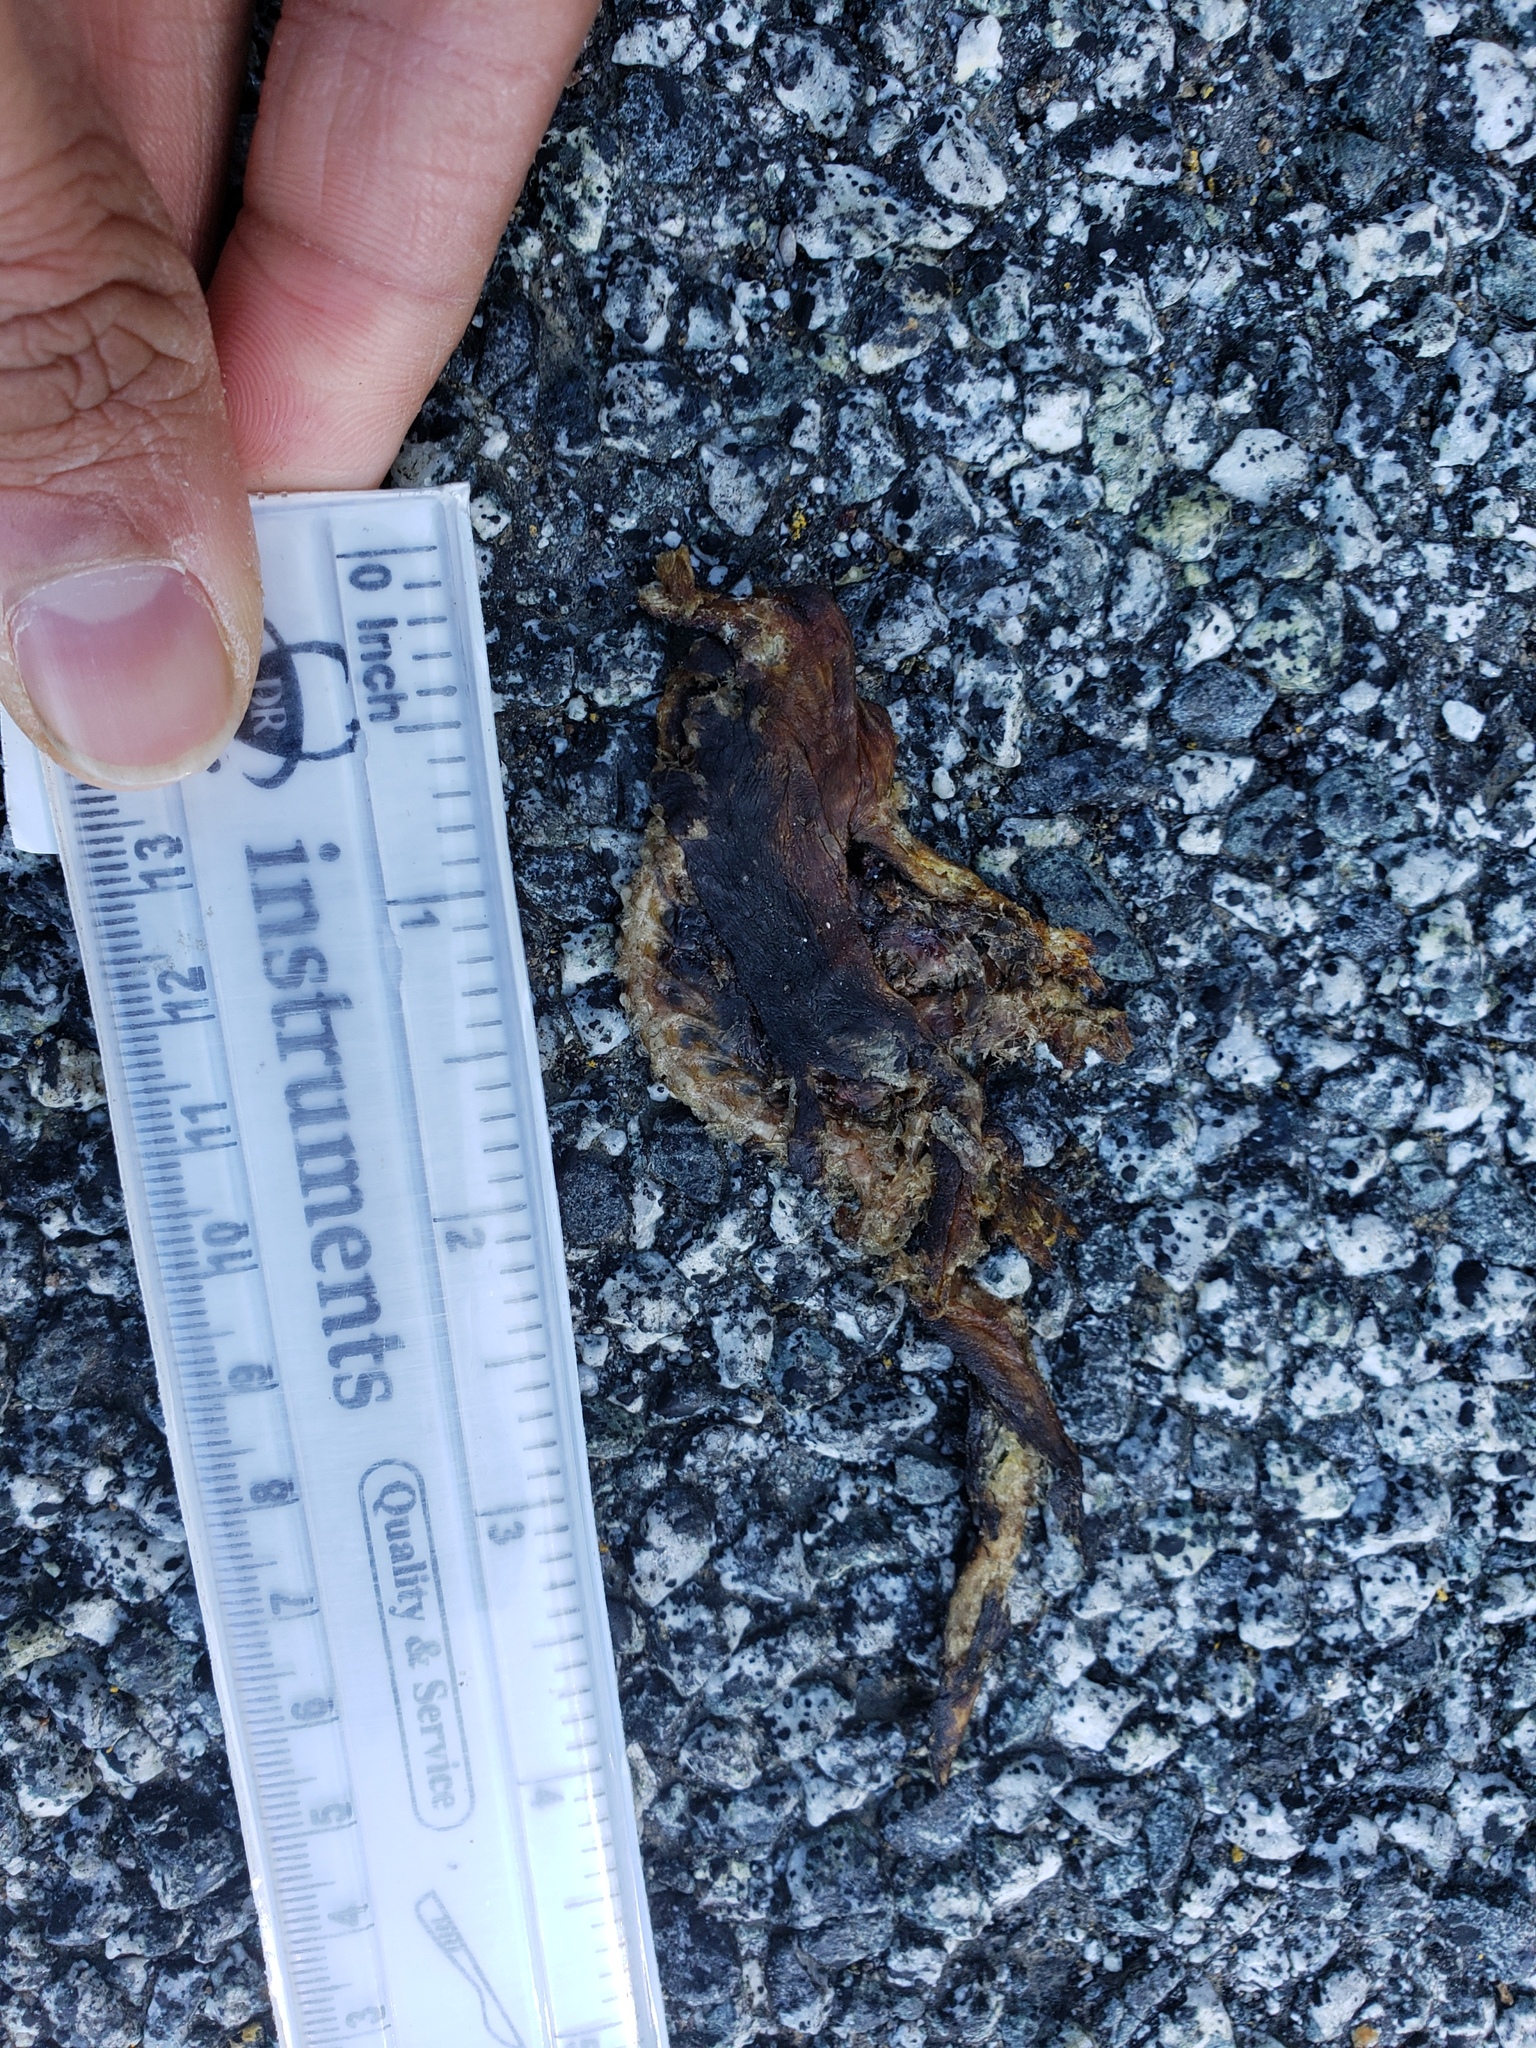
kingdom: Animalia
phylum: Chordata
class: Amphibia
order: Caudata
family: Salamandridae
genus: Taricha
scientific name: Taricha
